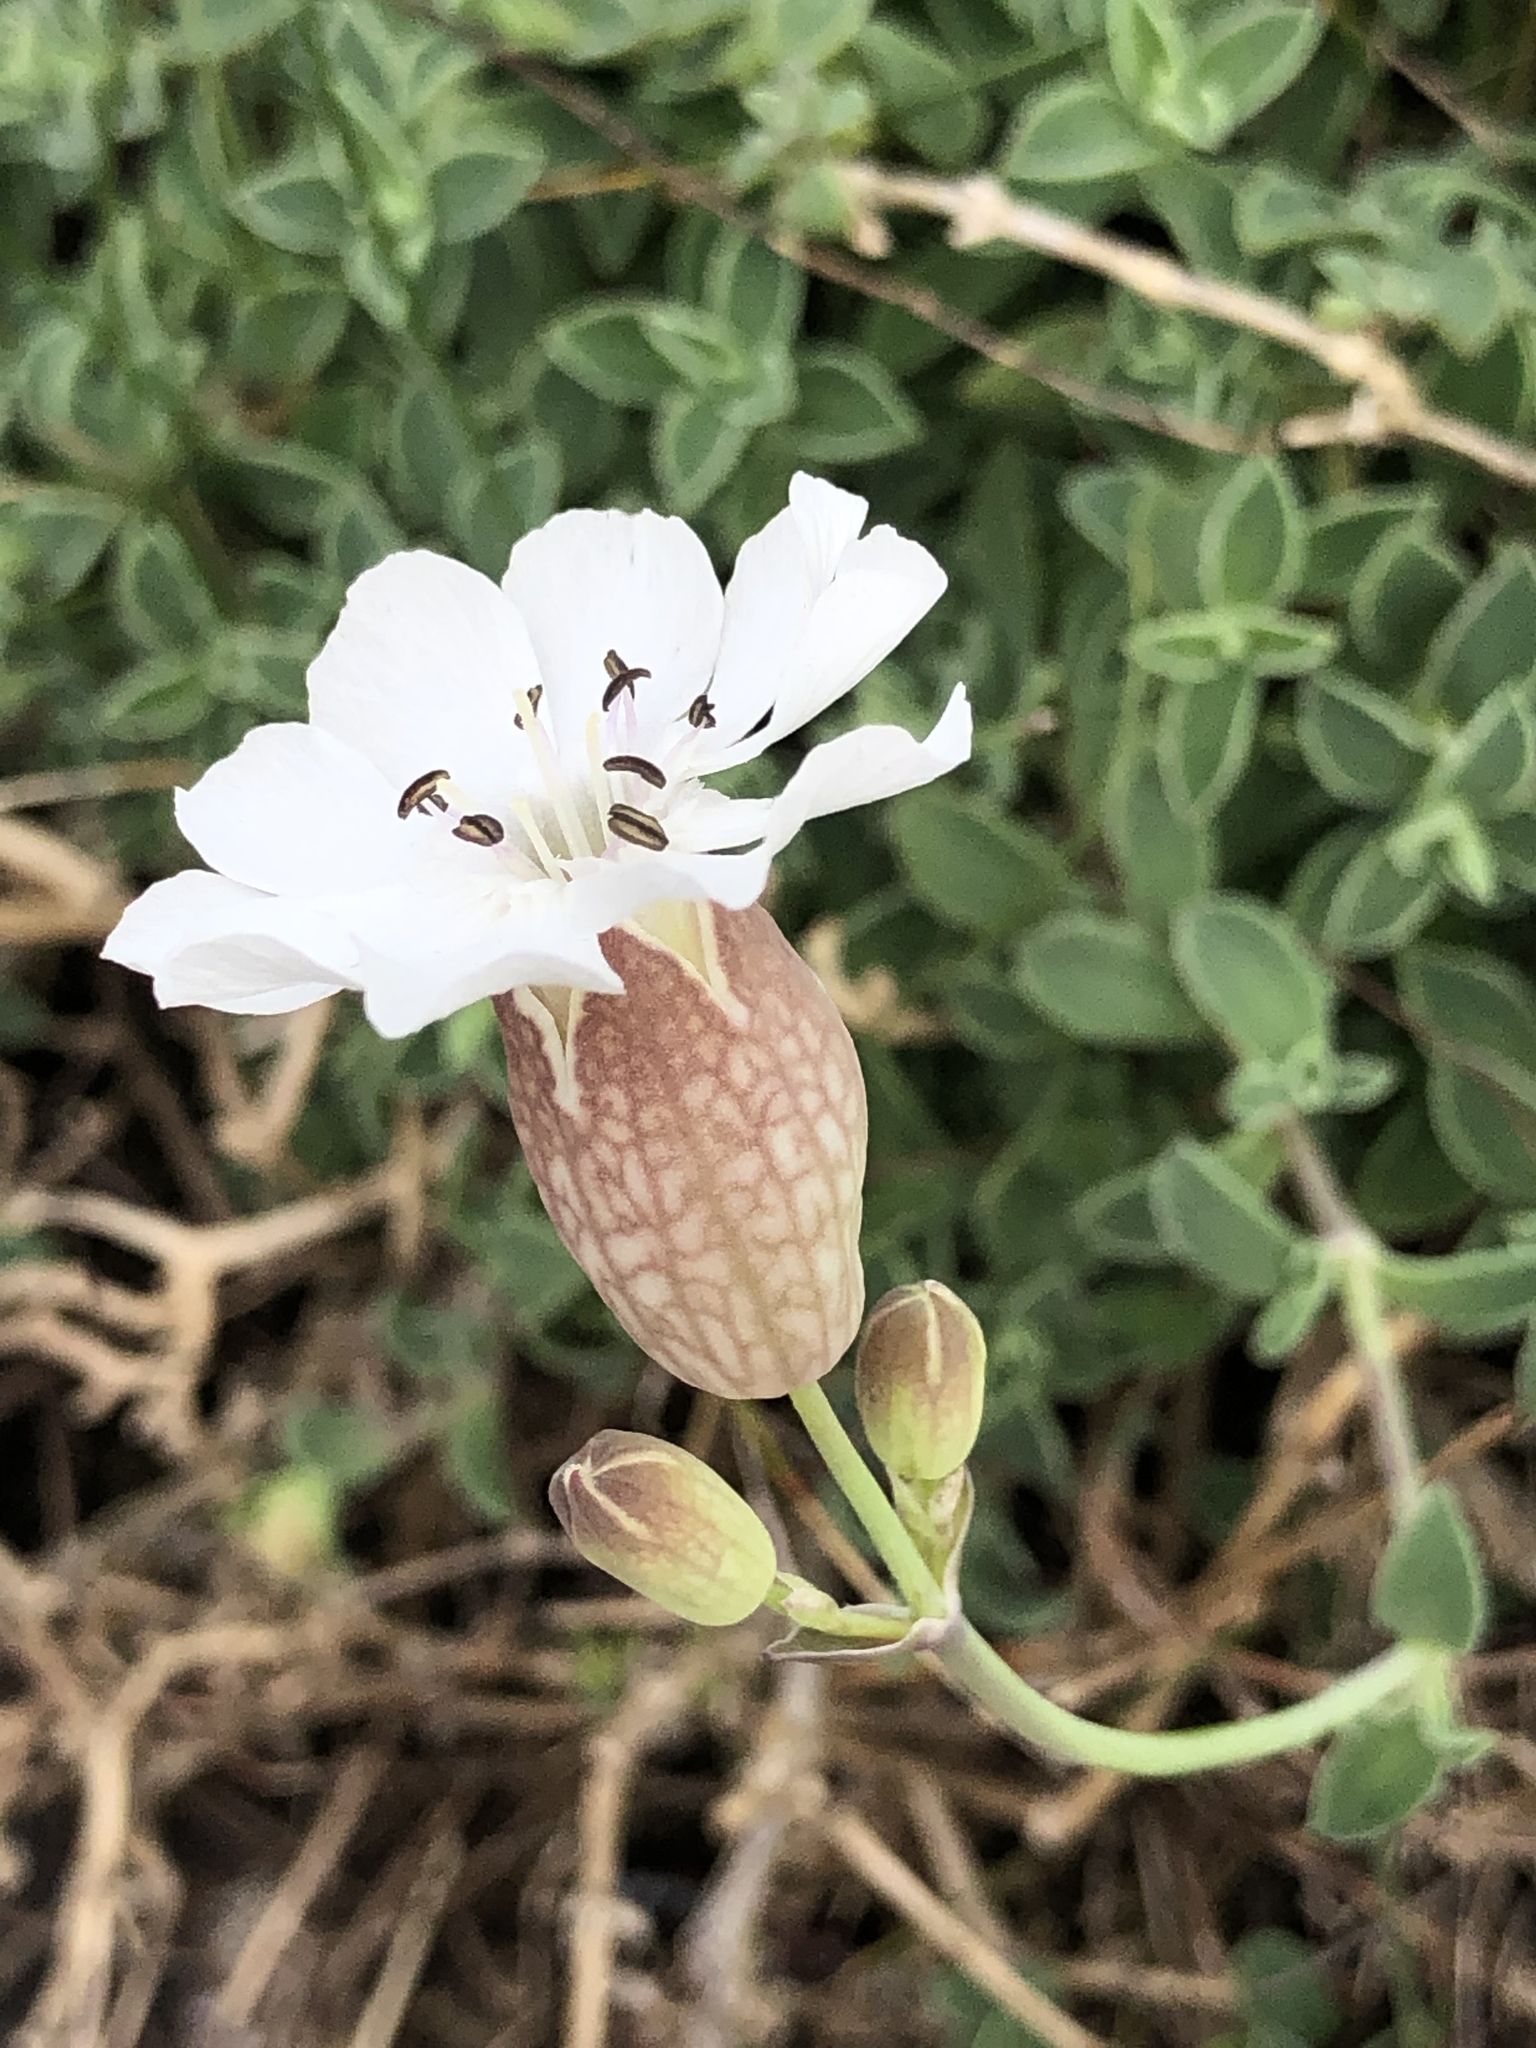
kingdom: Plantae
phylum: Tracheophyta
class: Magnoliopsida
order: Caryophyllales
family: Caryophyllaceae
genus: Silene
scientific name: Silene uniflora
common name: Sea campion
